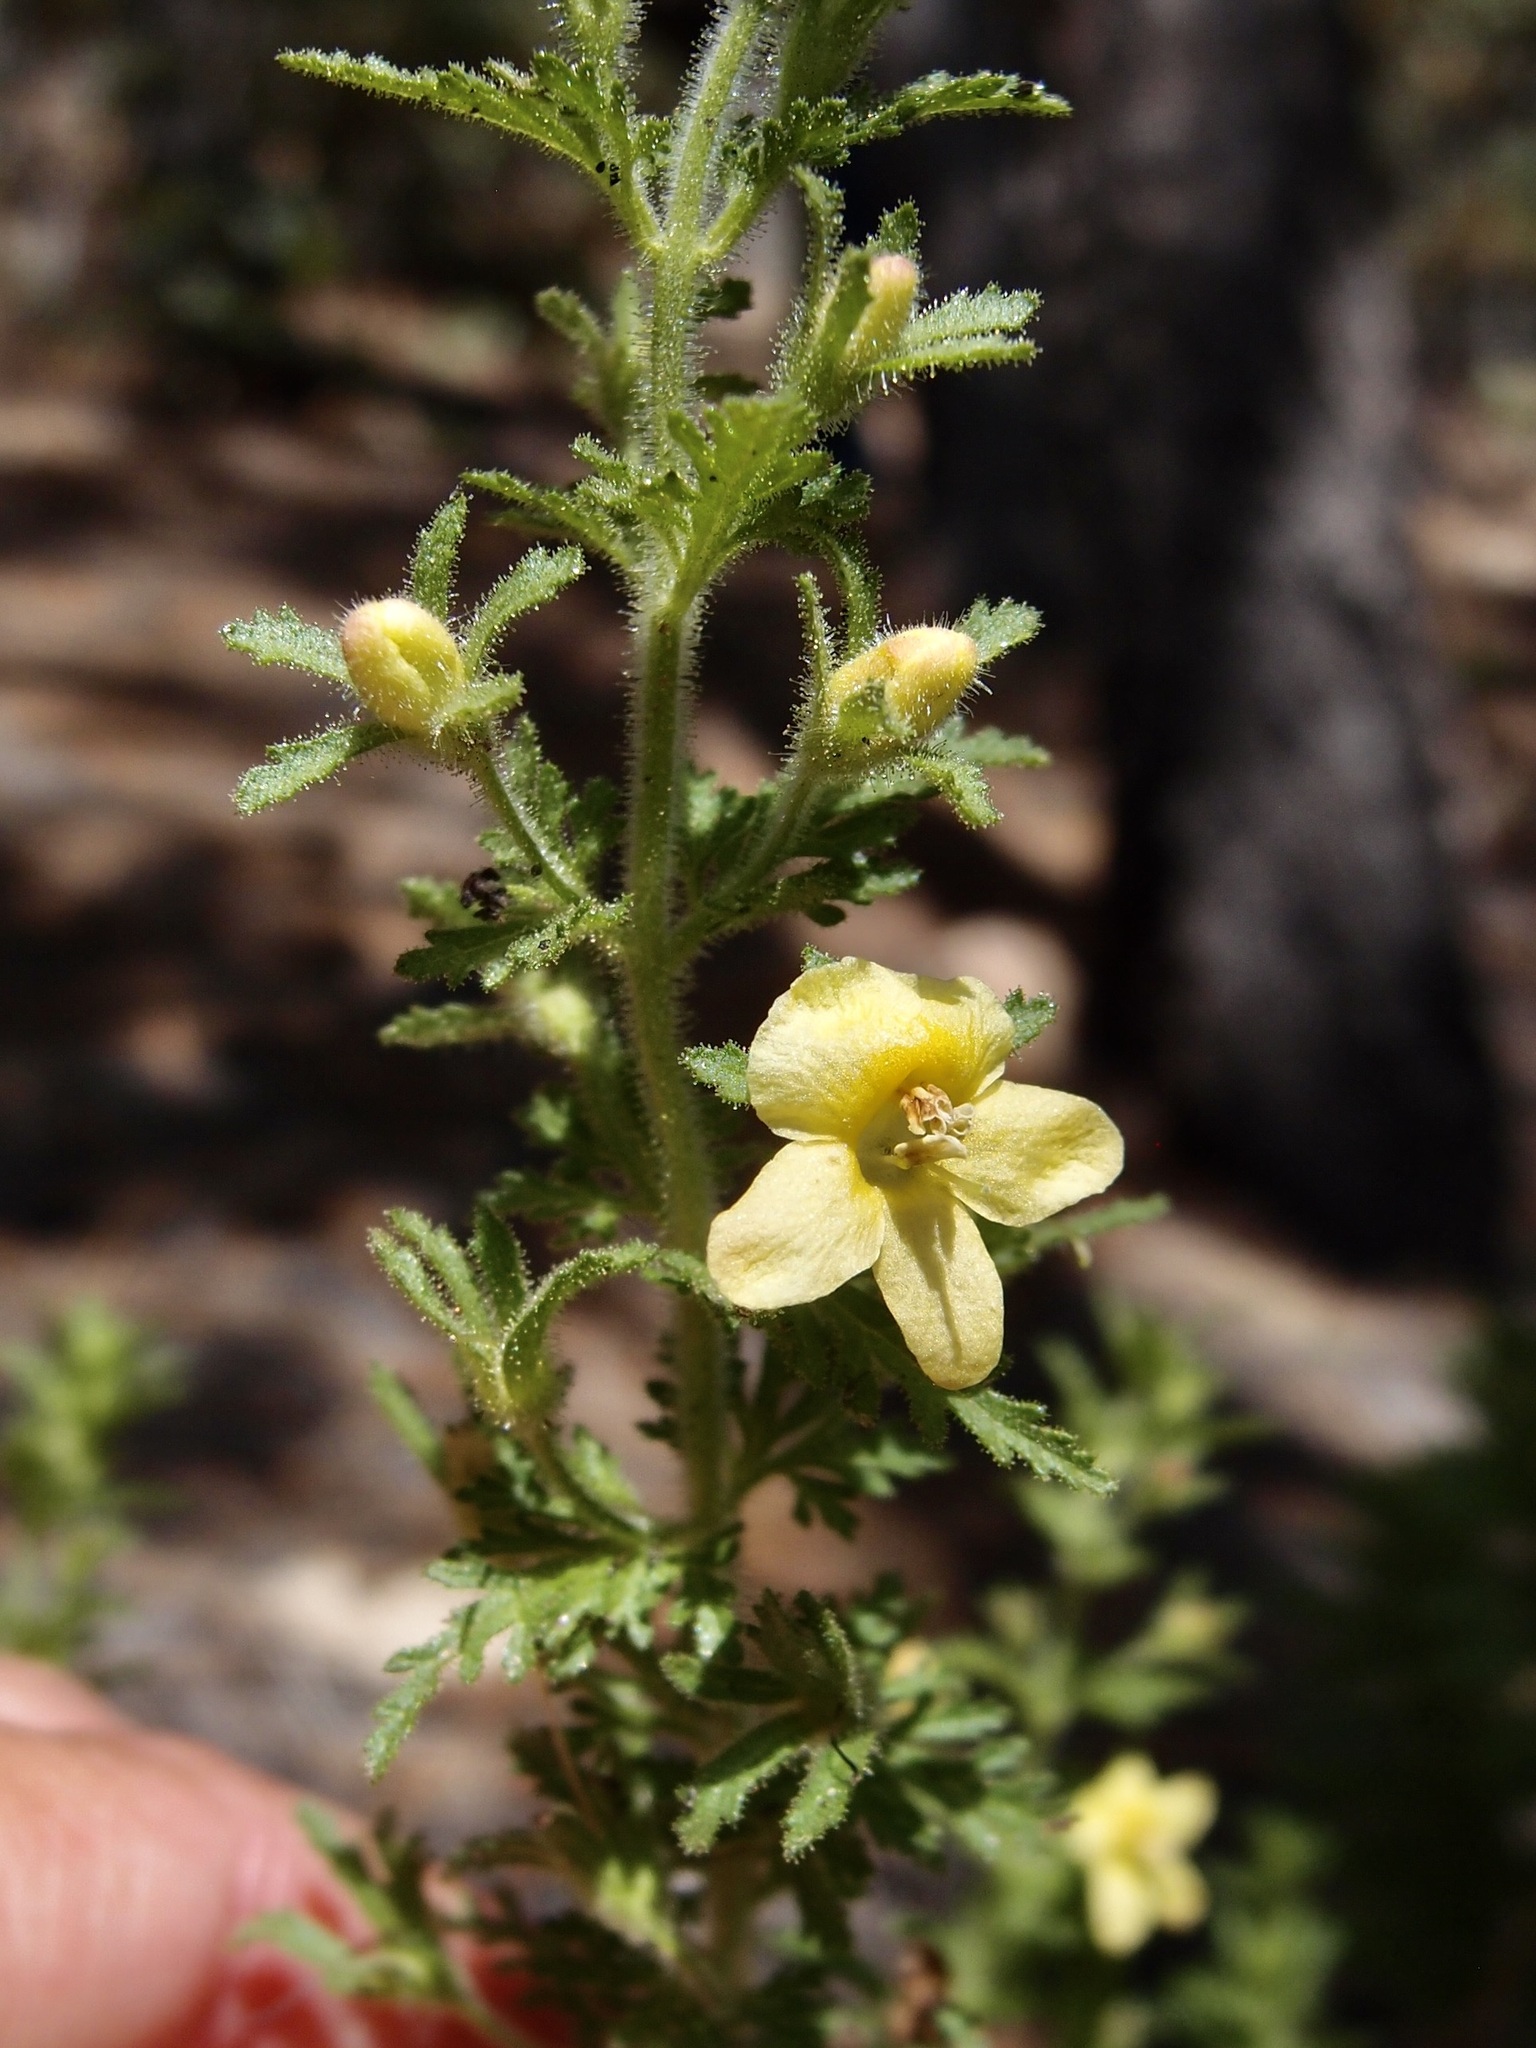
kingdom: Plantae
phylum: Tracheophyta
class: Magnoliopsida
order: Lamiales
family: Orobanchaceae
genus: Seymeria
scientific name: Seymeria bipinnatisecta
